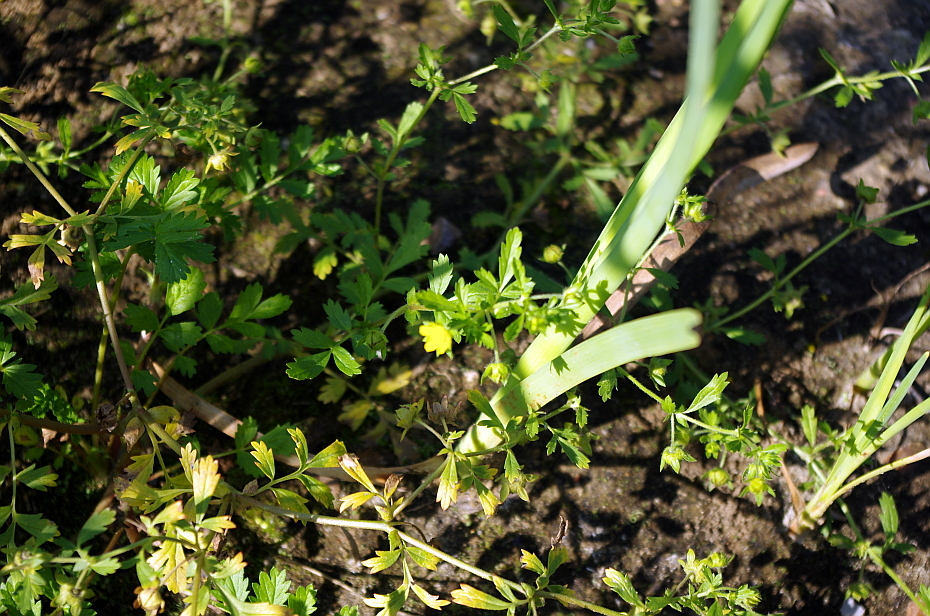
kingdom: Plantae
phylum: Tracheophyta
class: Magnoliopsida
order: Rosales
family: Rosaceae
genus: Potentilla
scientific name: Potentilla supina
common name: Prostrate cinquefoil
